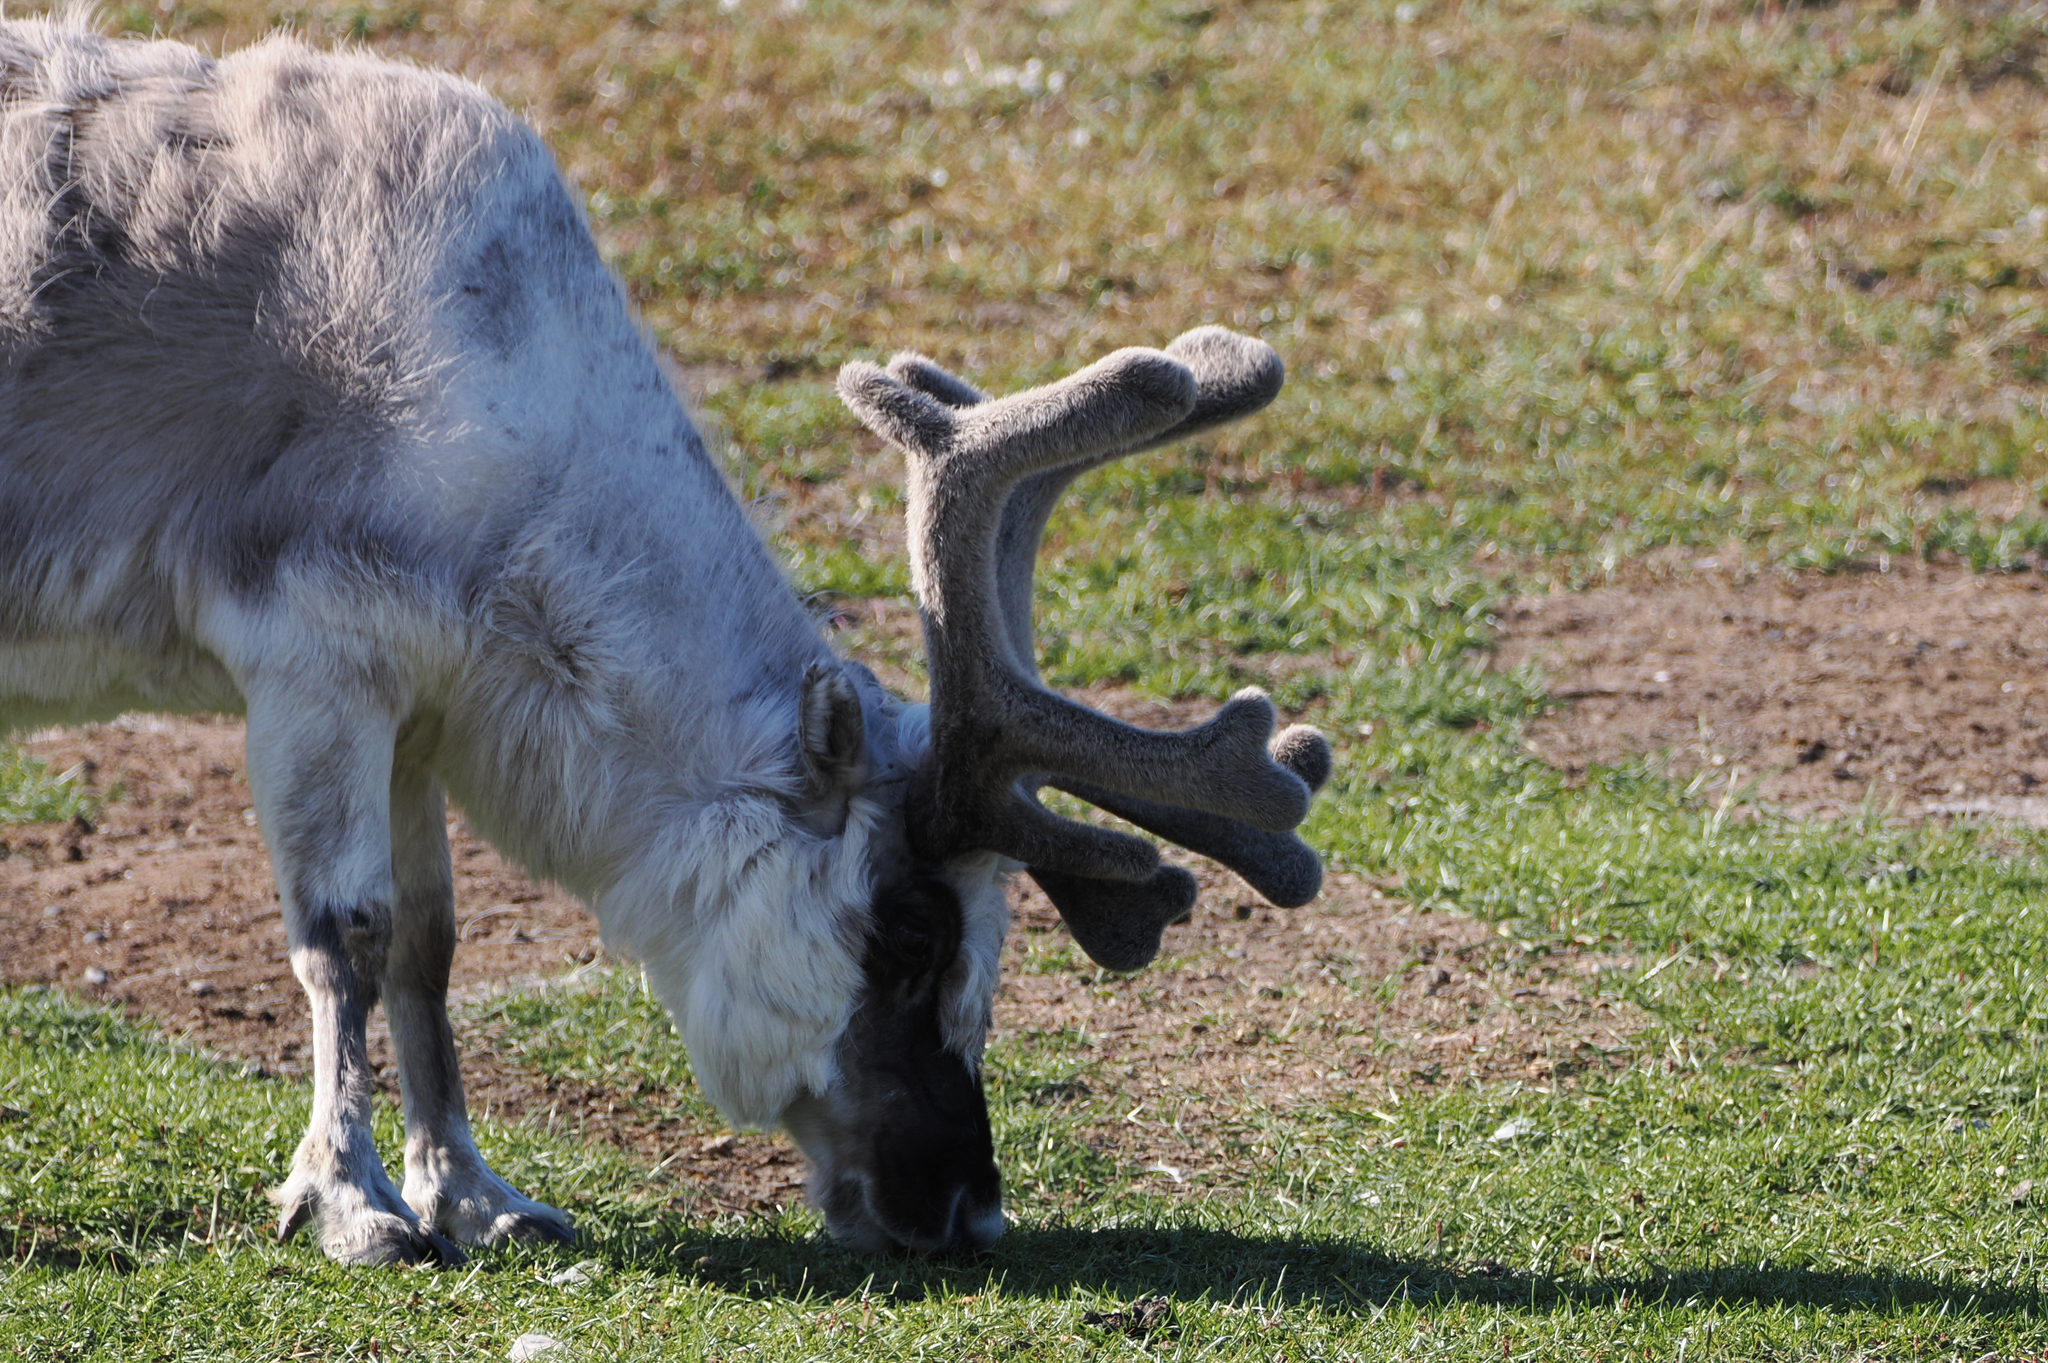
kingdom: Animalia
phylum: Chordata
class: Mammalia
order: Artiodactyla
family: Cervidae
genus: Rangifer
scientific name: Rangifer tarandus
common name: Reindeer
